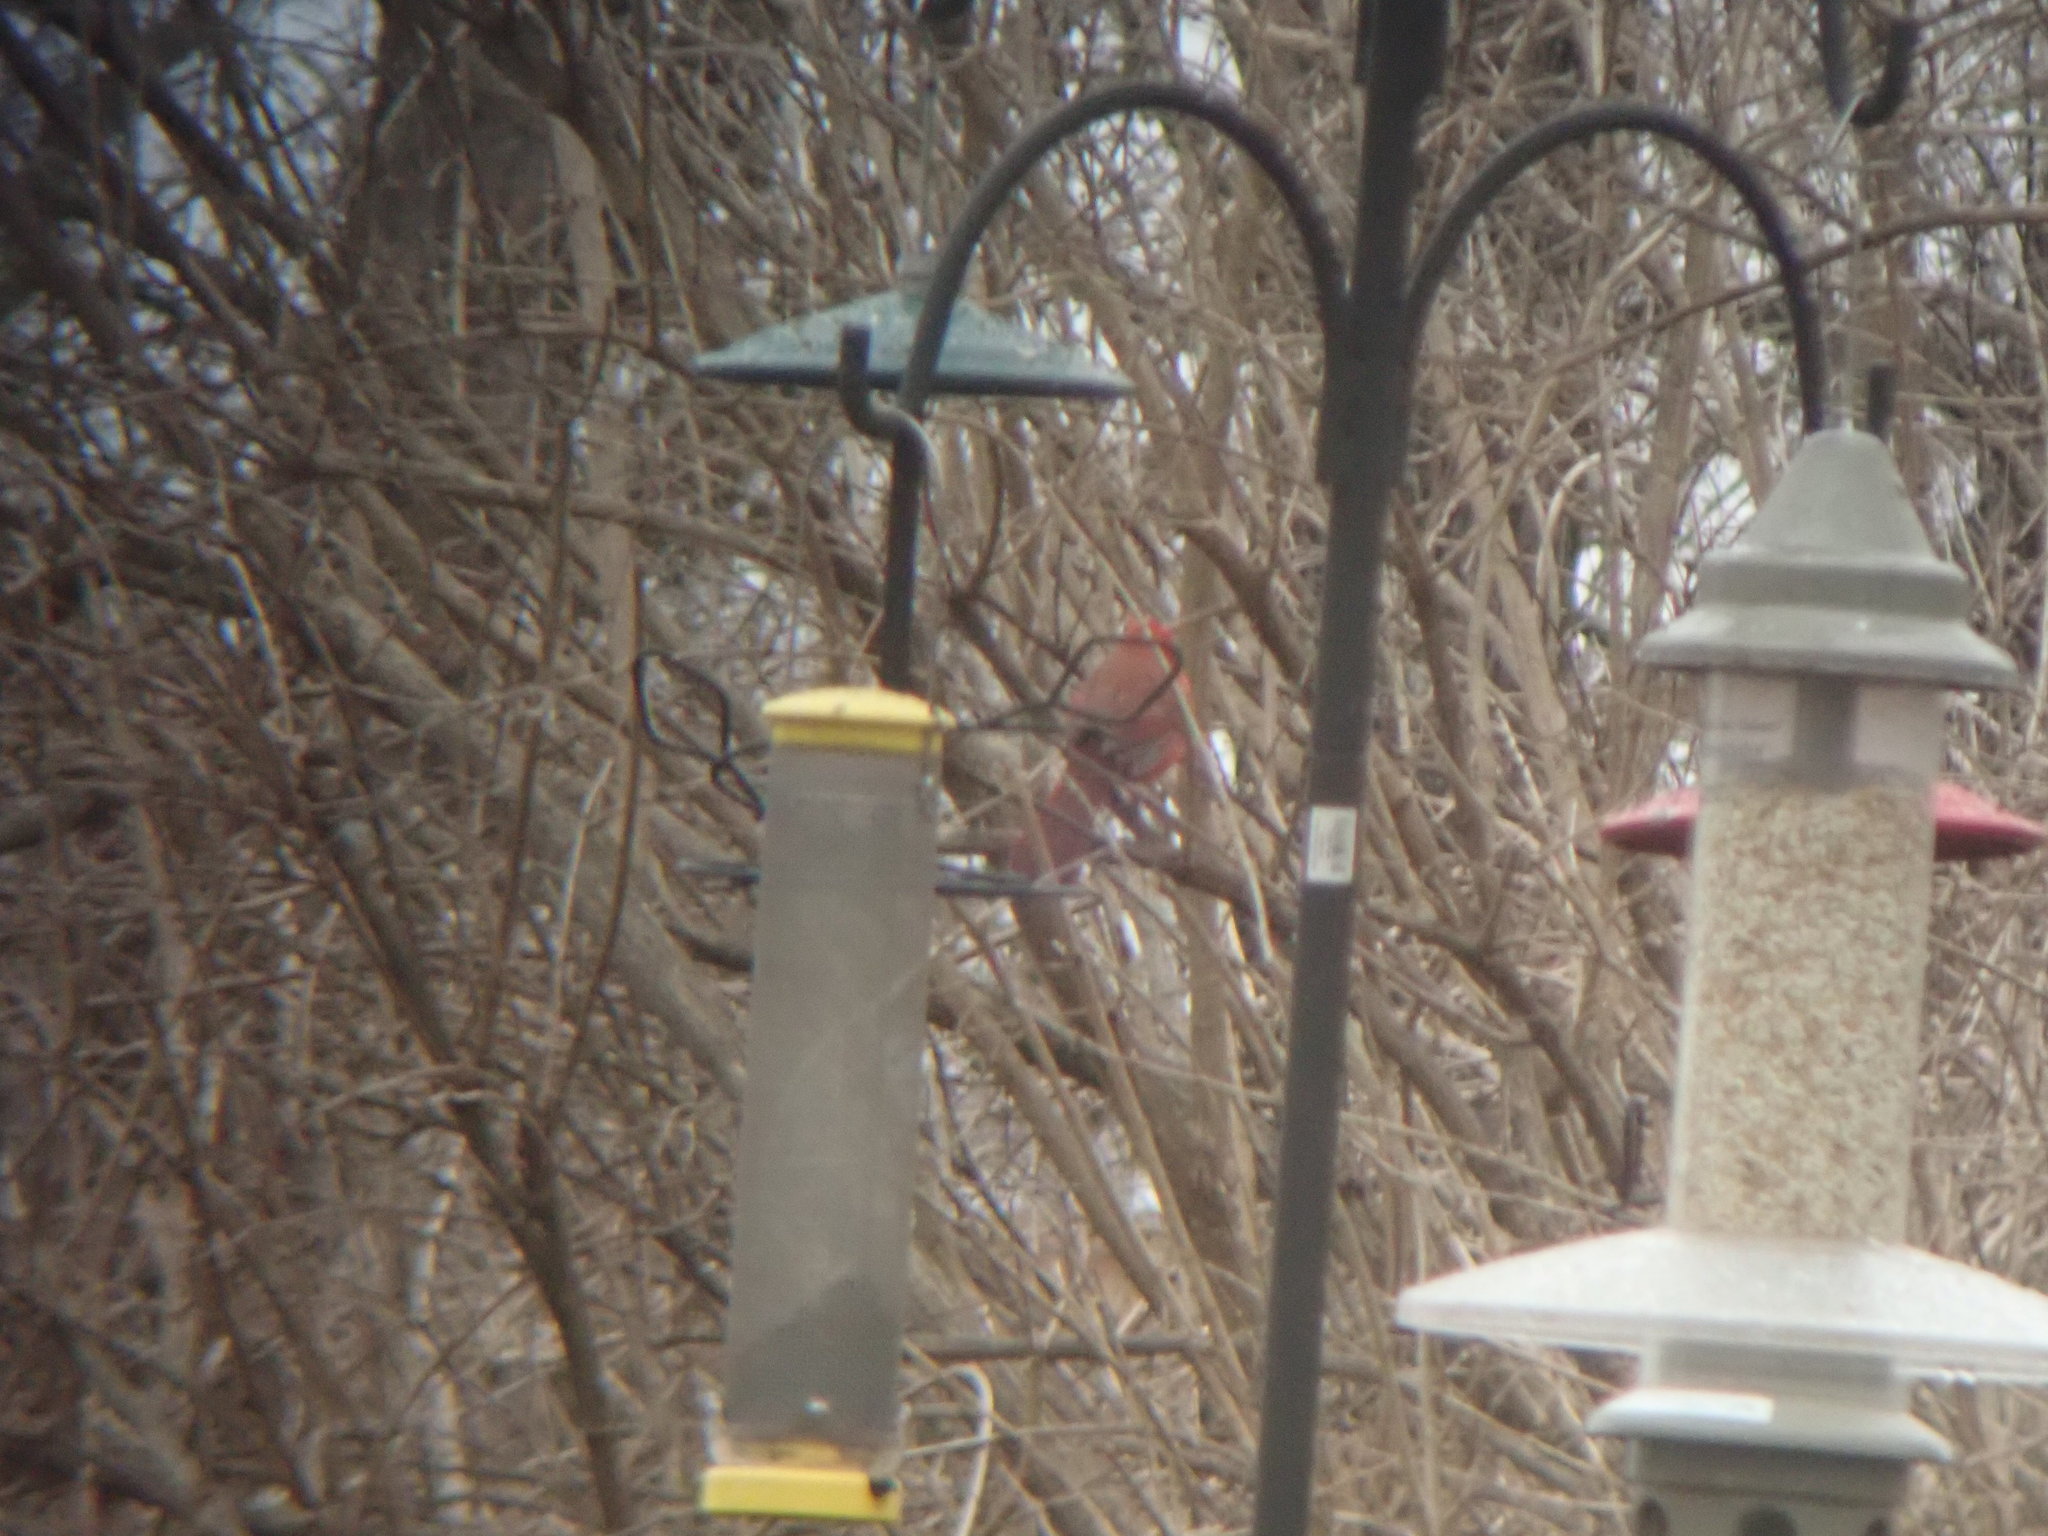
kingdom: Animalia
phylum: Chordata
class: Aves
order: Passeriformes
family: Cardinalidae
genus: Cardinalis
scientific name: Cardinalis cardinalis
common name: Northern cardinal
